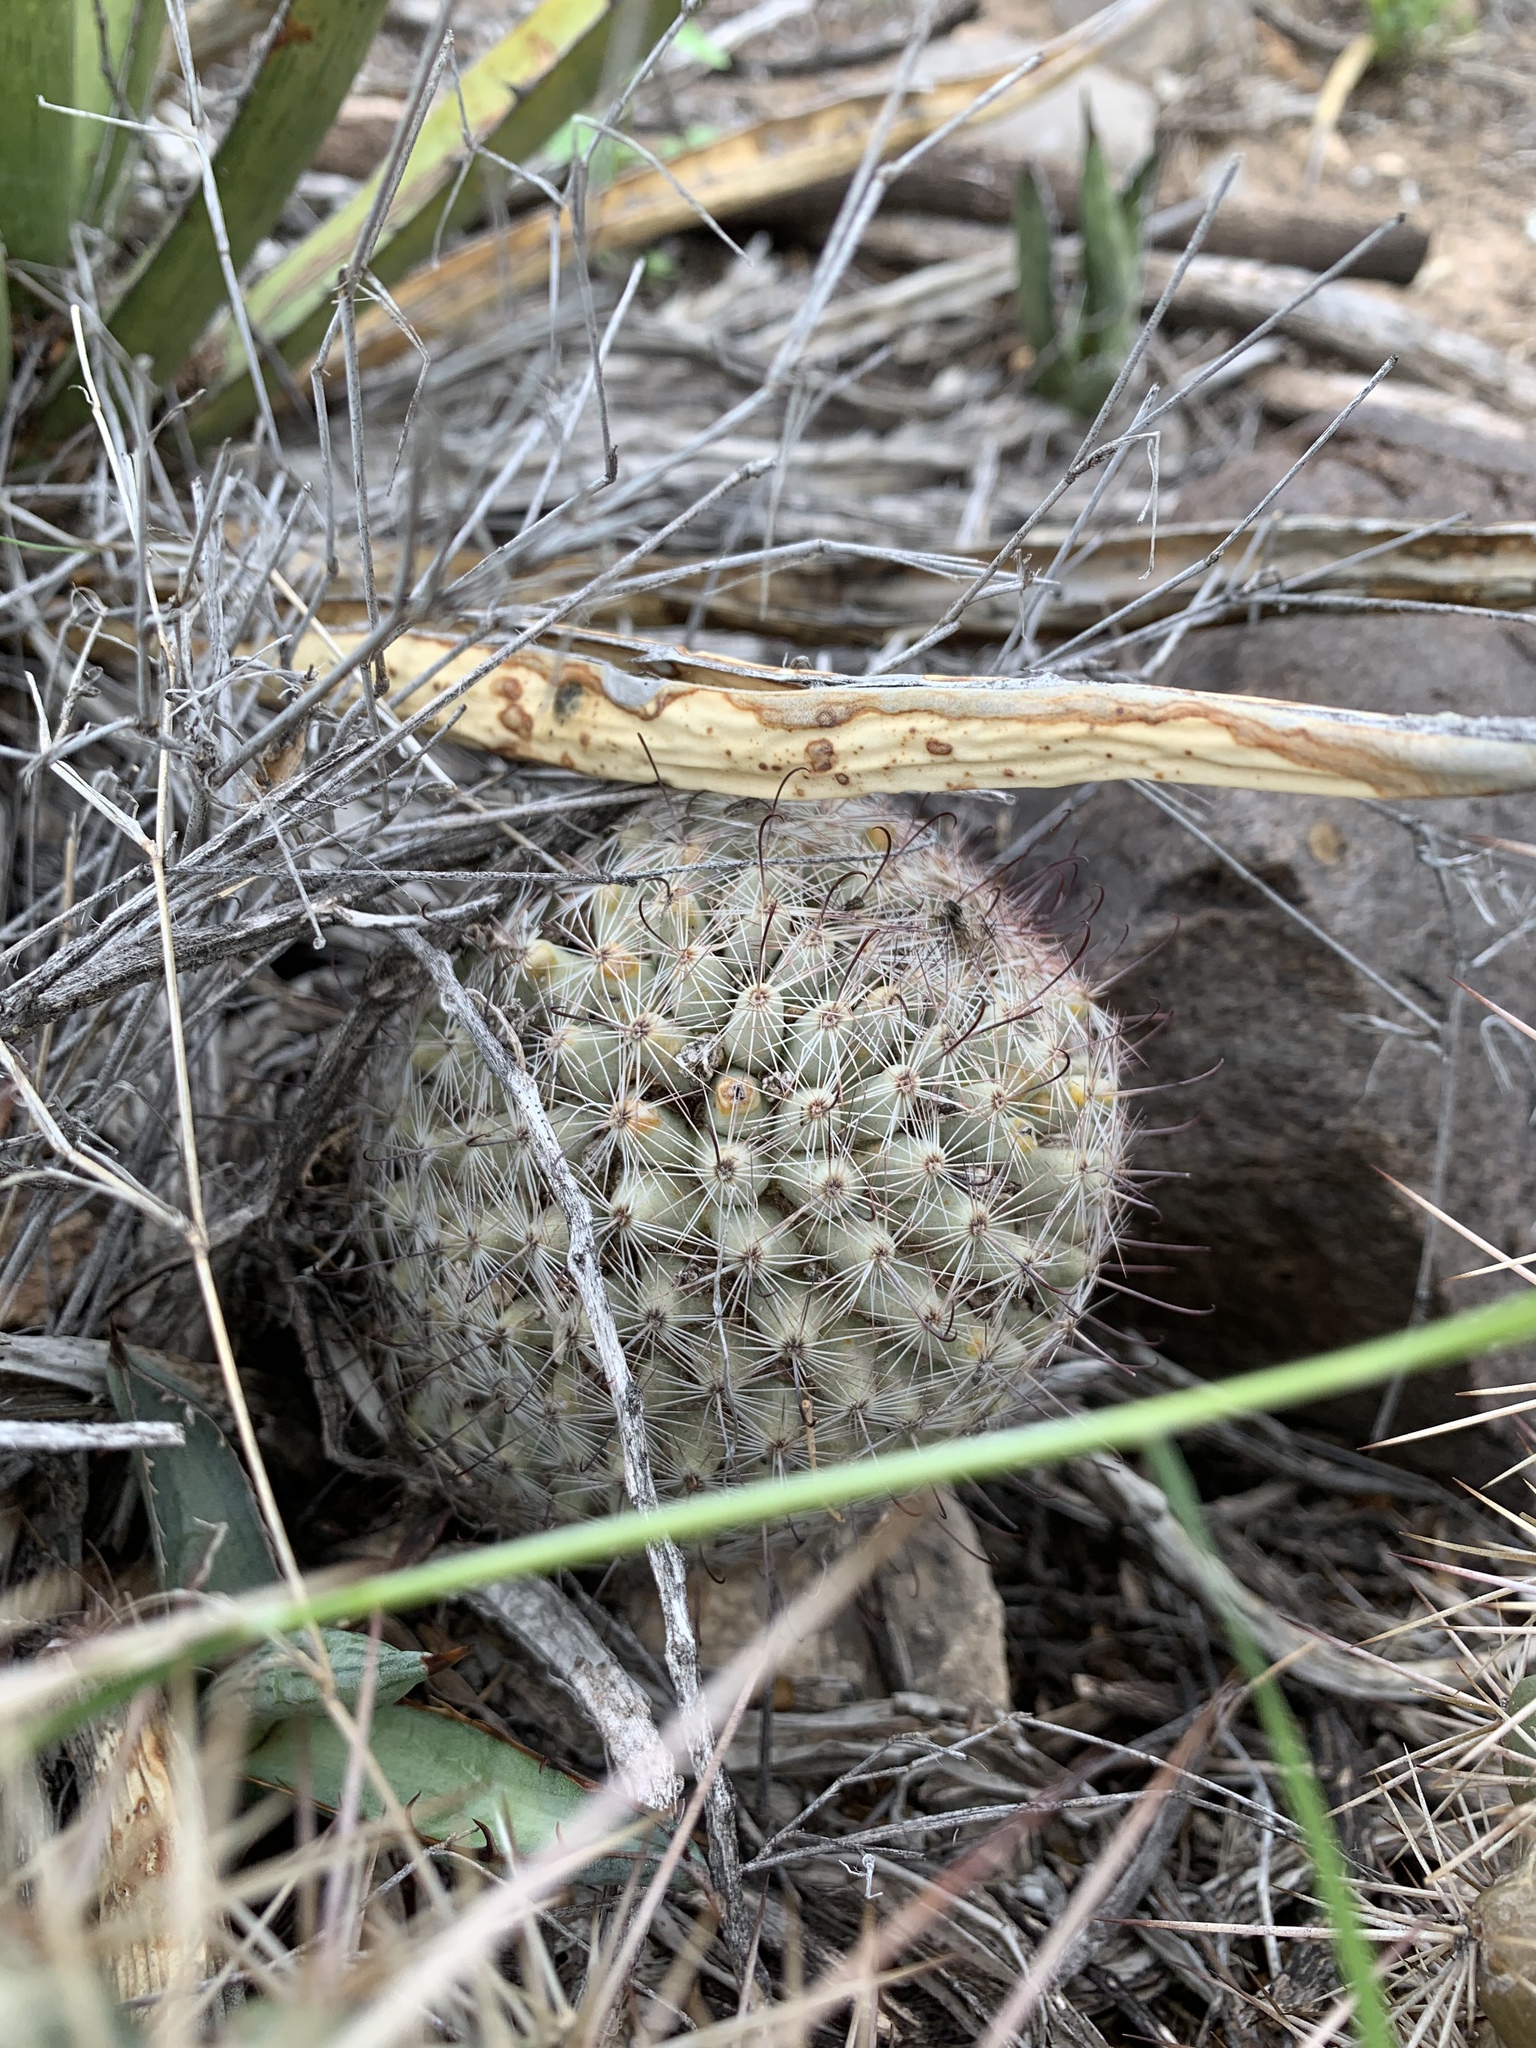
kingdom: Plantae
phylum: Tracheophyta
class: Magnoliopsida
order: Caryophyllales
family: Cactaceae
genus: Cochemiea
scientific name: Cochemiea grahamii
